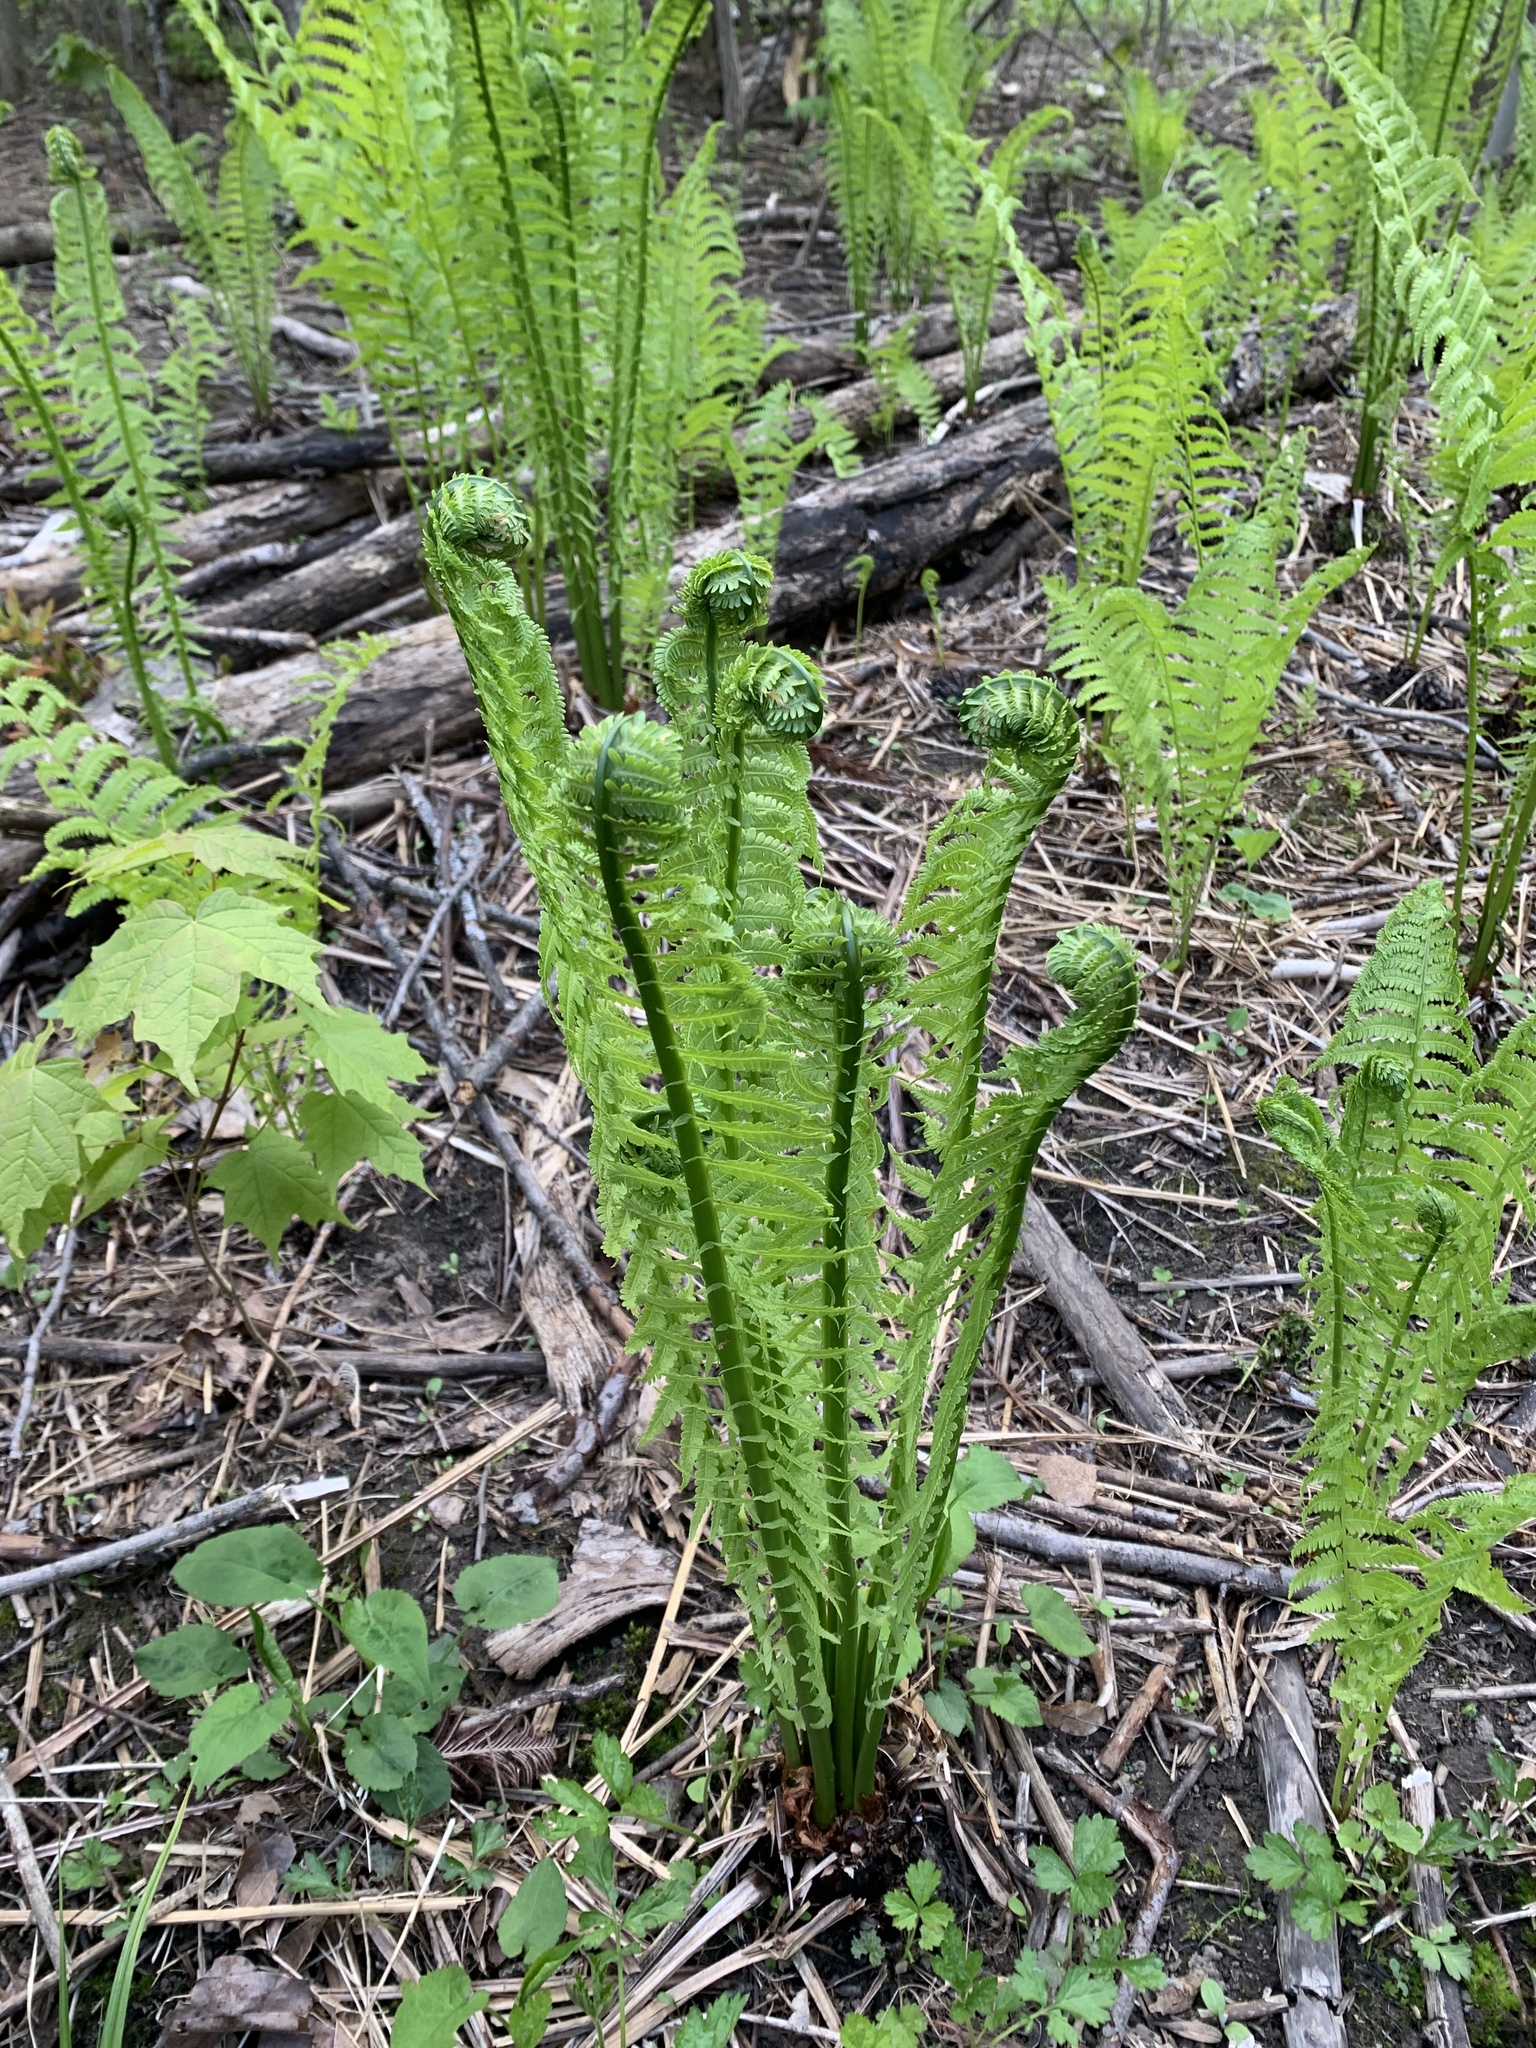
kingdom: Plantae
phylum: Tracheophyta
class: Polypodiopsida
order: Polypodiales
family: Onocleaceae
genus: Matteuccia
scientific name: Matteuccia struthiopteris
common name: Ostrich fern
